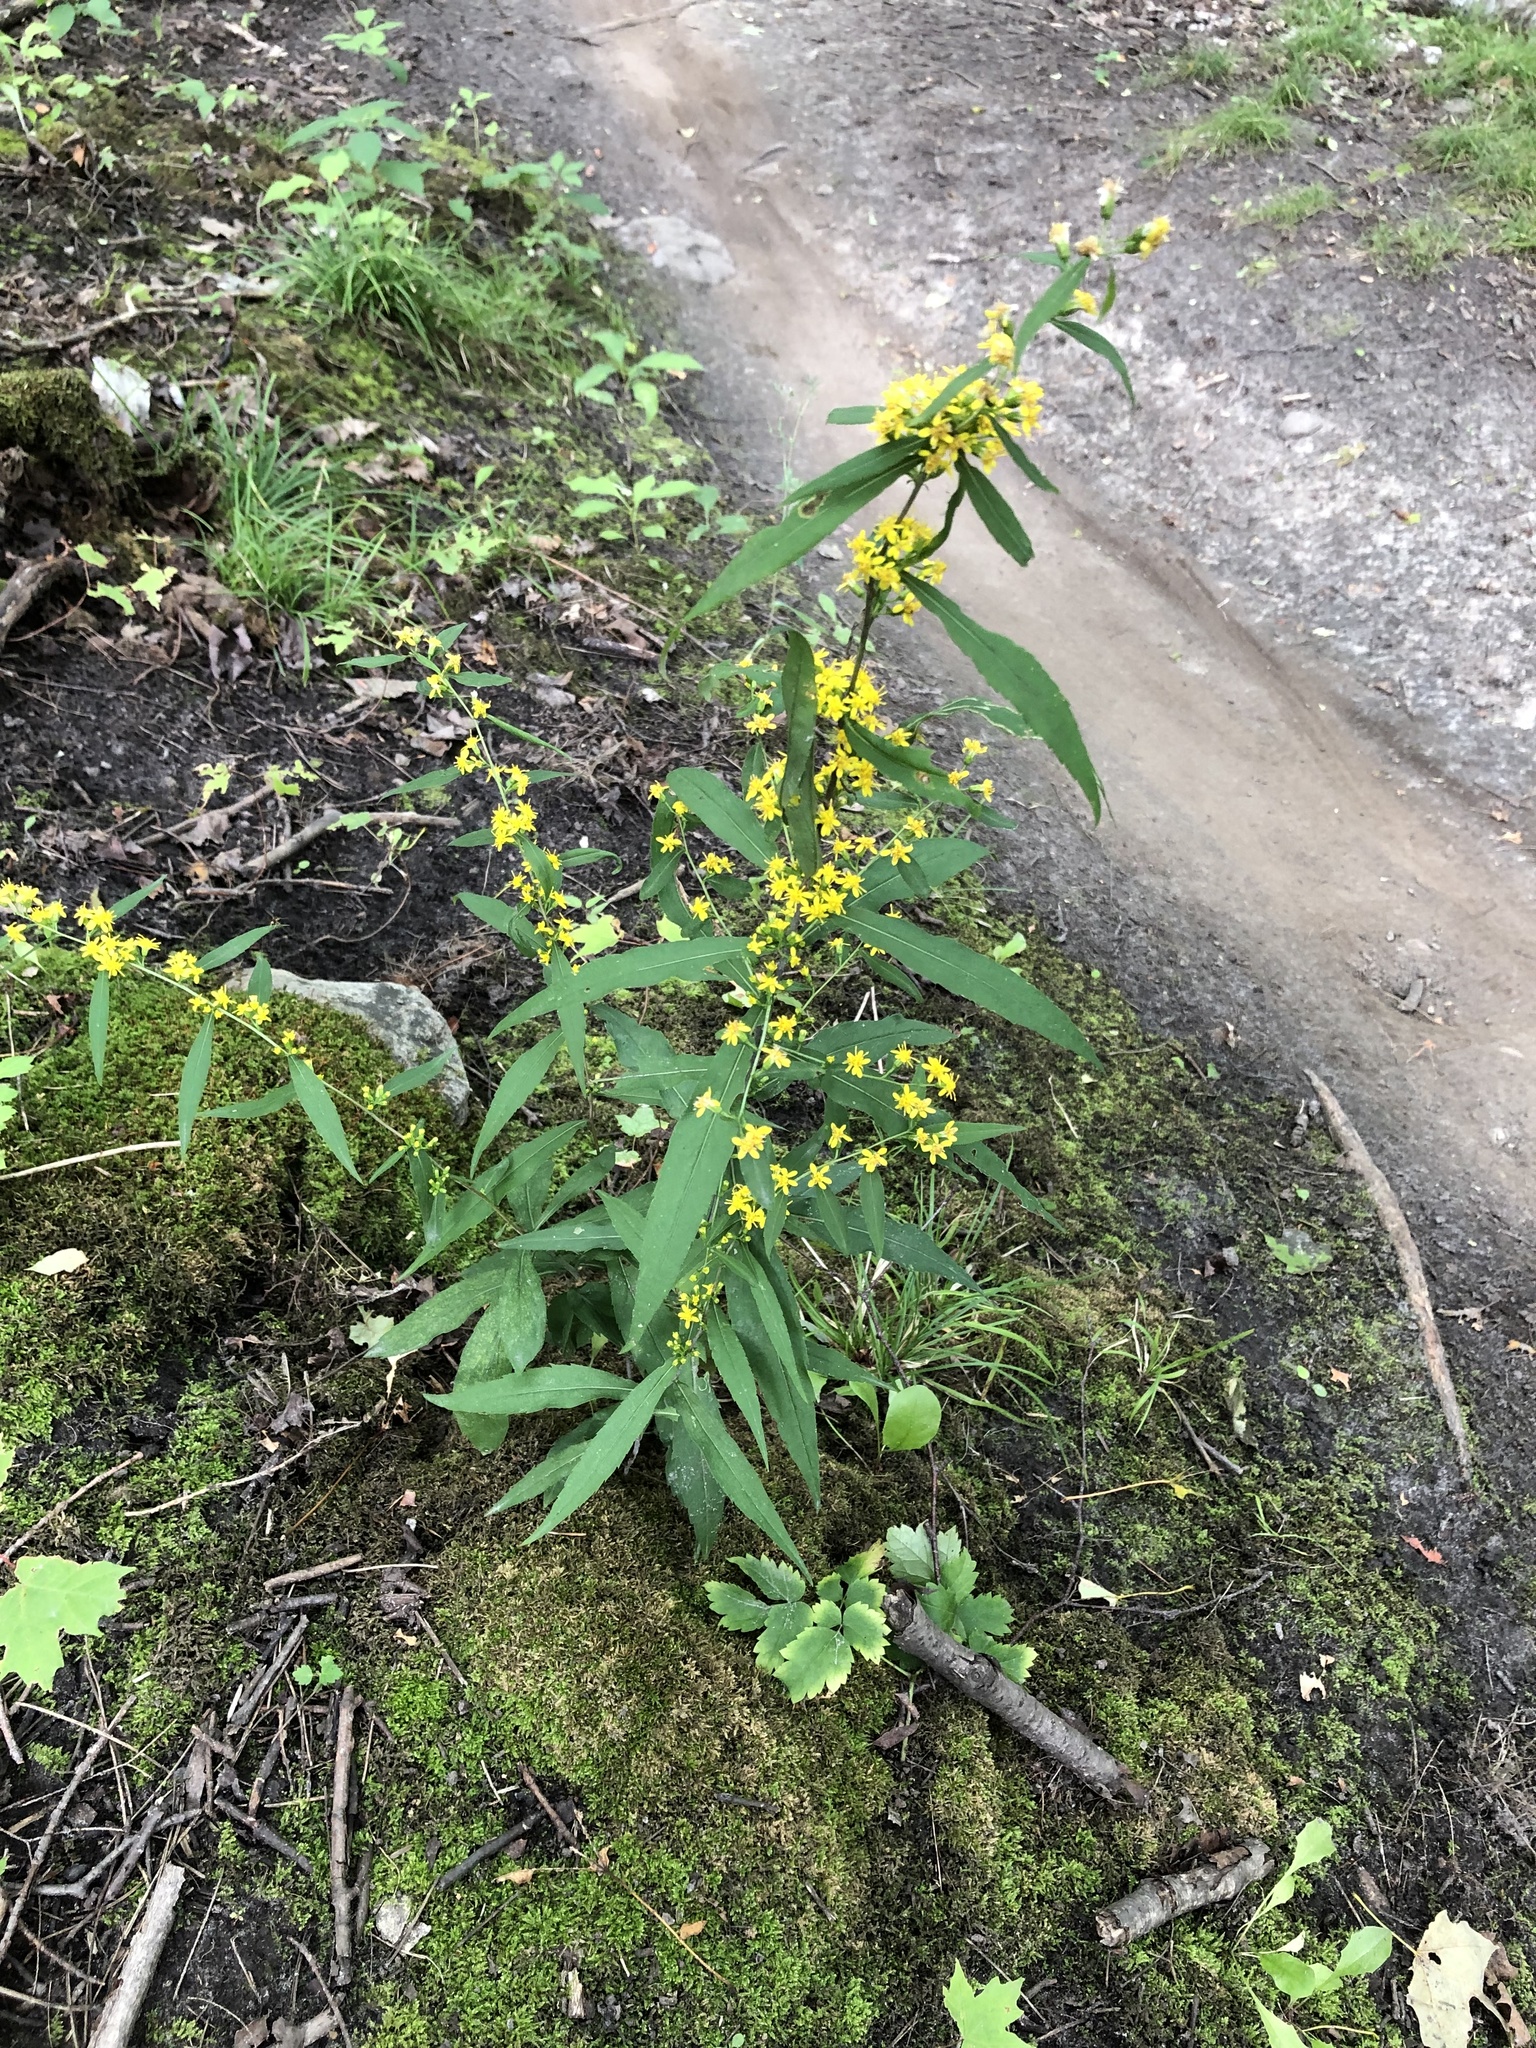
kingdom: Plantae
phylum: Tracheophyta
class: Magnoliopsida
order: Asterales
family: Asteraceae
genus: Solidago
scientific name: Solidago caesia
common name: Woodland goldenrod
